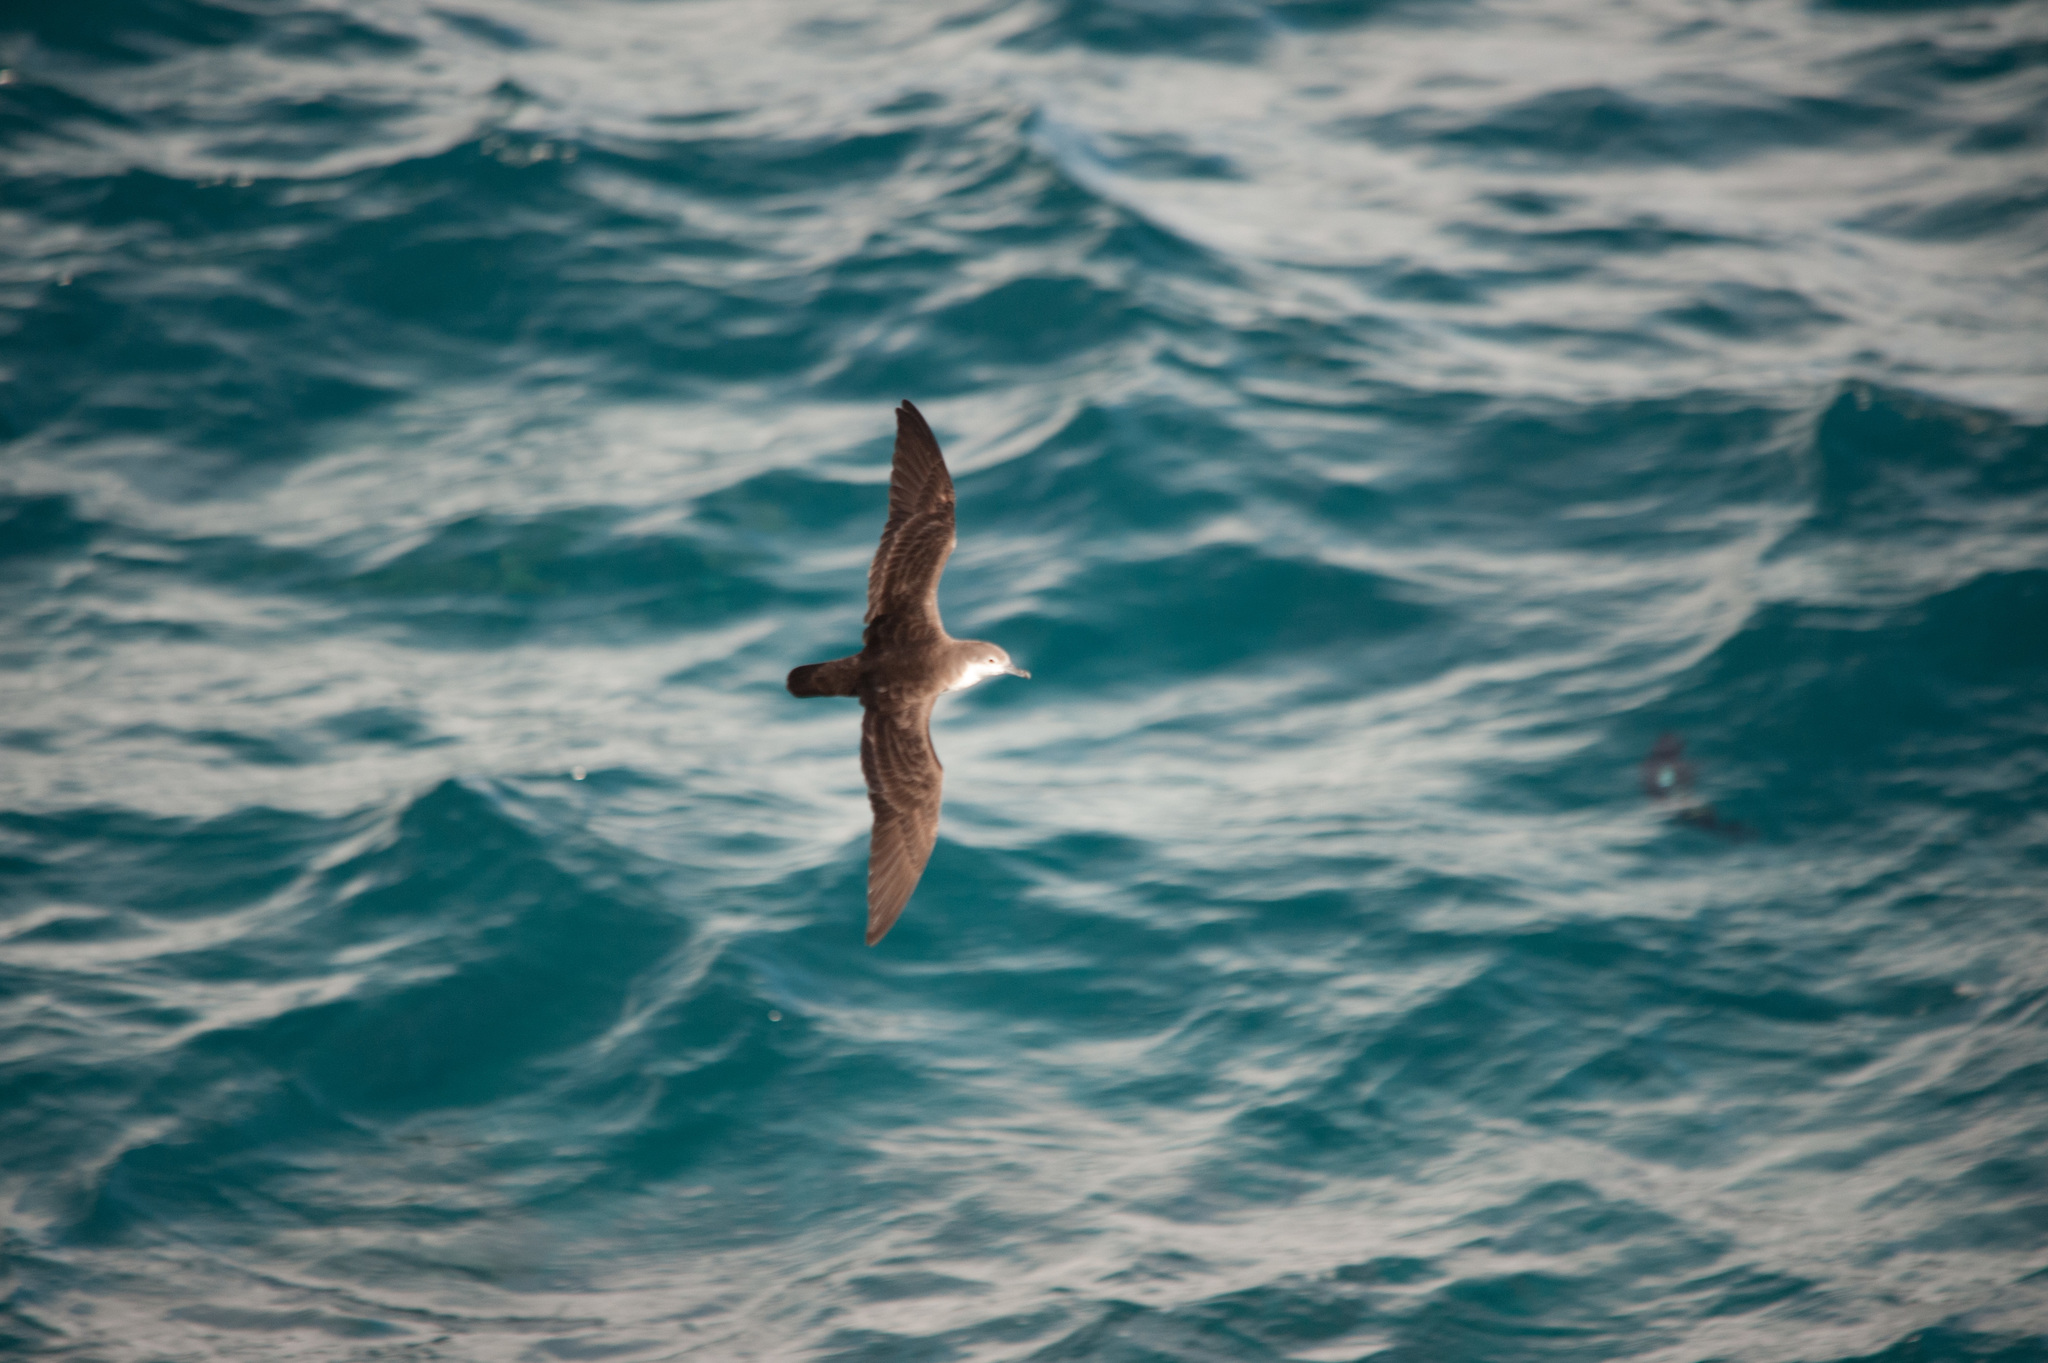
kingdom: Animalia
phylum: Chordata
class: Aves
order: Procellariiformes
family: Procellariidae
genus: Puffinus
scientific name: Puffinus subalaris
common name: Galapagos shearwater
